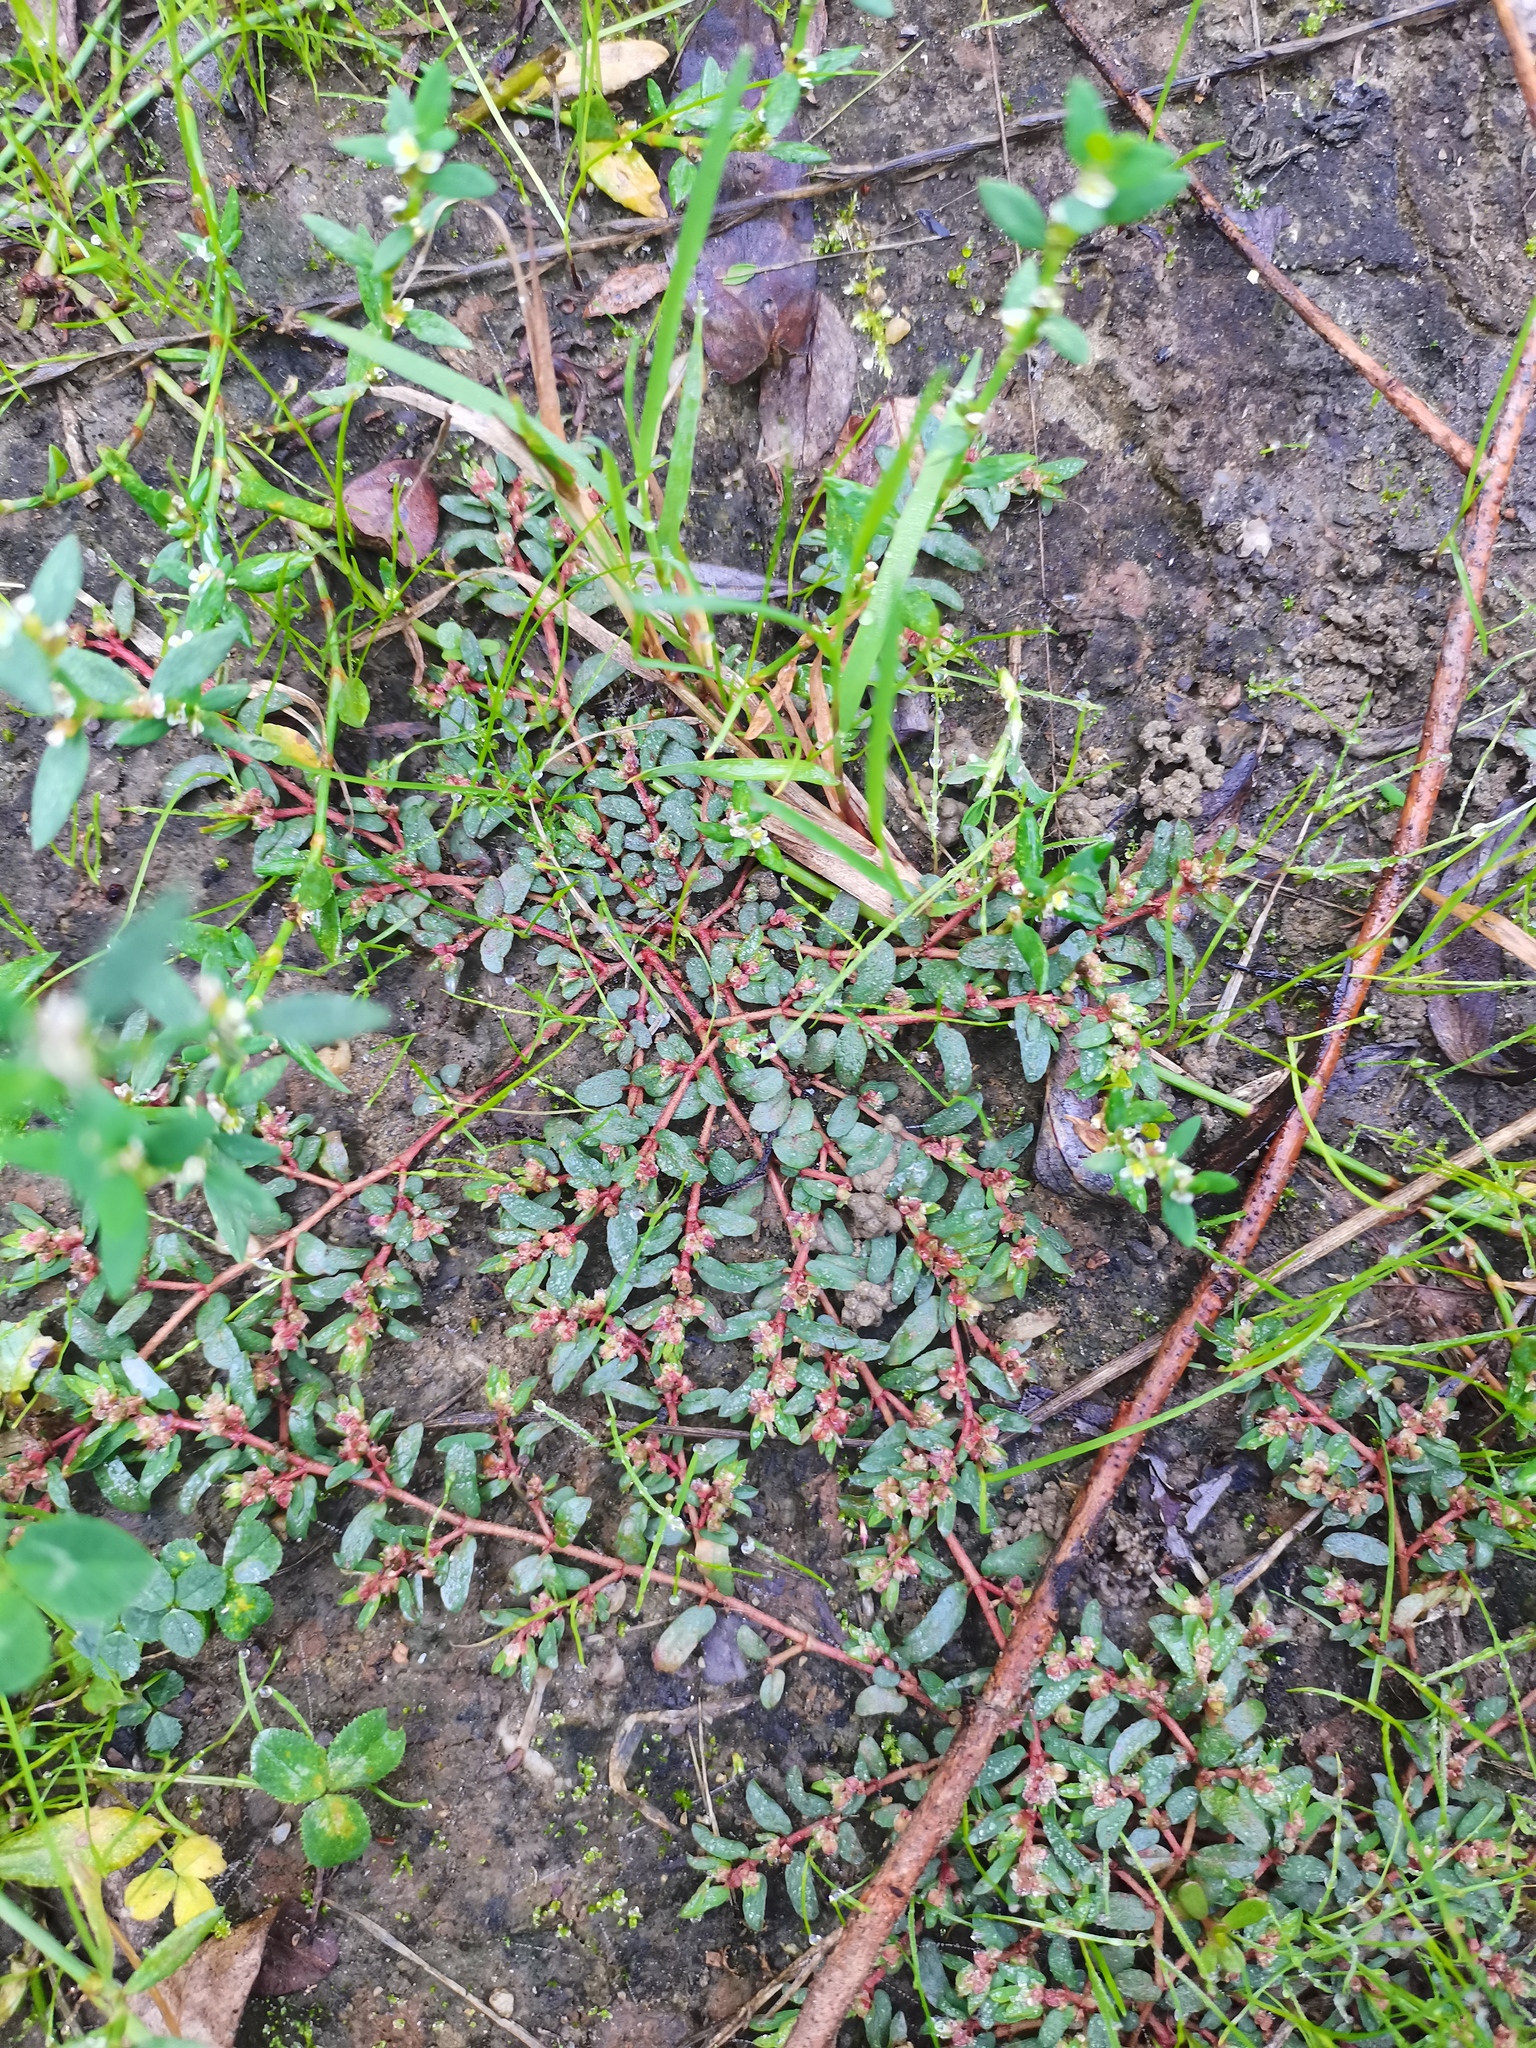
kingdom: Plantae
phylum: Tracheophyta
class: Magnoliopsida
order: Malpighiales
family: Euphorbiaceae
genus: Euphorbia
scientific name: Euphorbia maculata
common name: Spotted spurge
